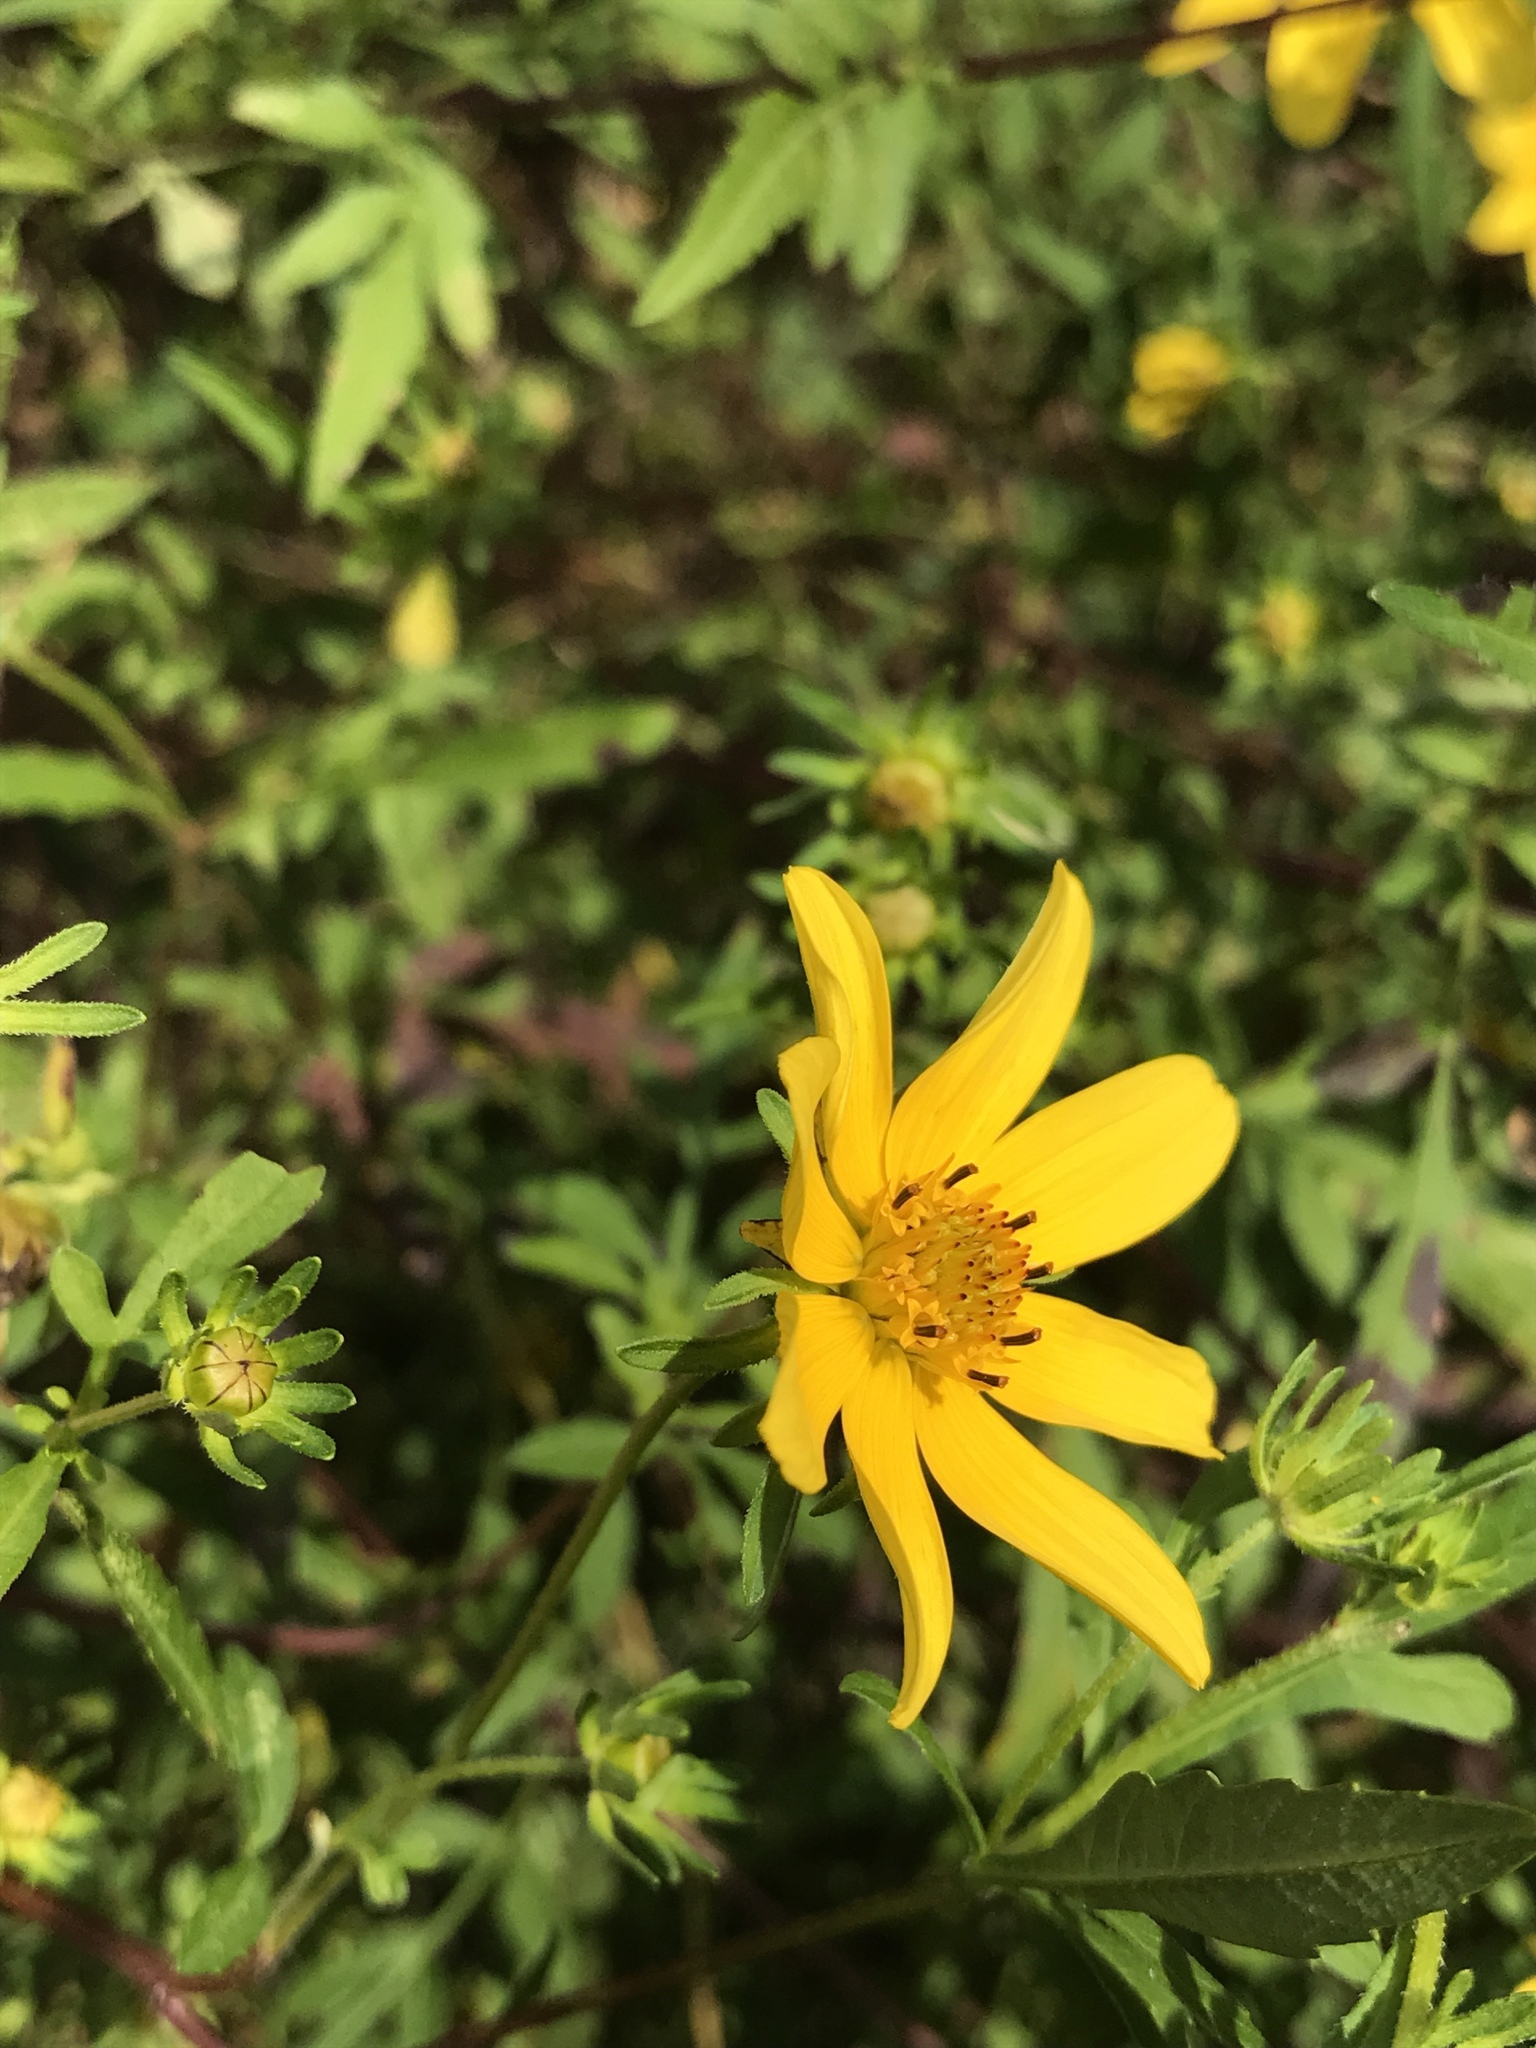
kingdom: Plantae
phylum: Tracheophyta
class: Magnoliopsida
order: Asterales
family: Asteraceae
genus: Bidens
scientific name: Bidens aristosa
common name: Western tickseed
